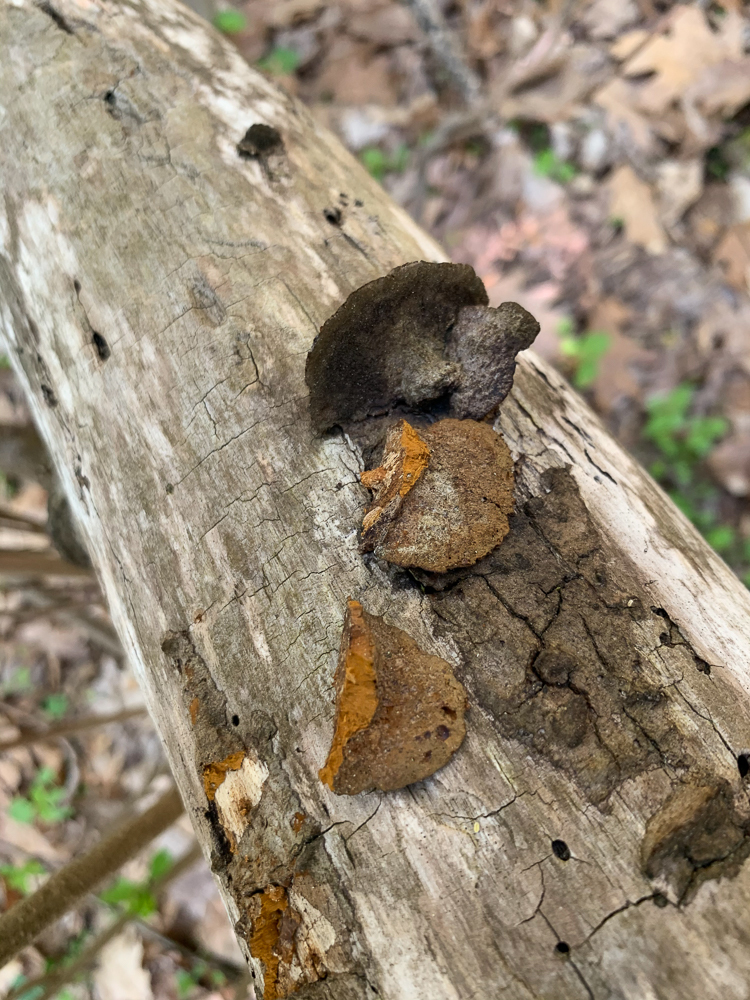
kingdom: Fungi
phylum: Basidiomycota
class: Agaricomycetes
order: Hymenochaetales
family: Hymenochaetaceae
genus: Phellinus
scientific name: Phellinus gilvus
